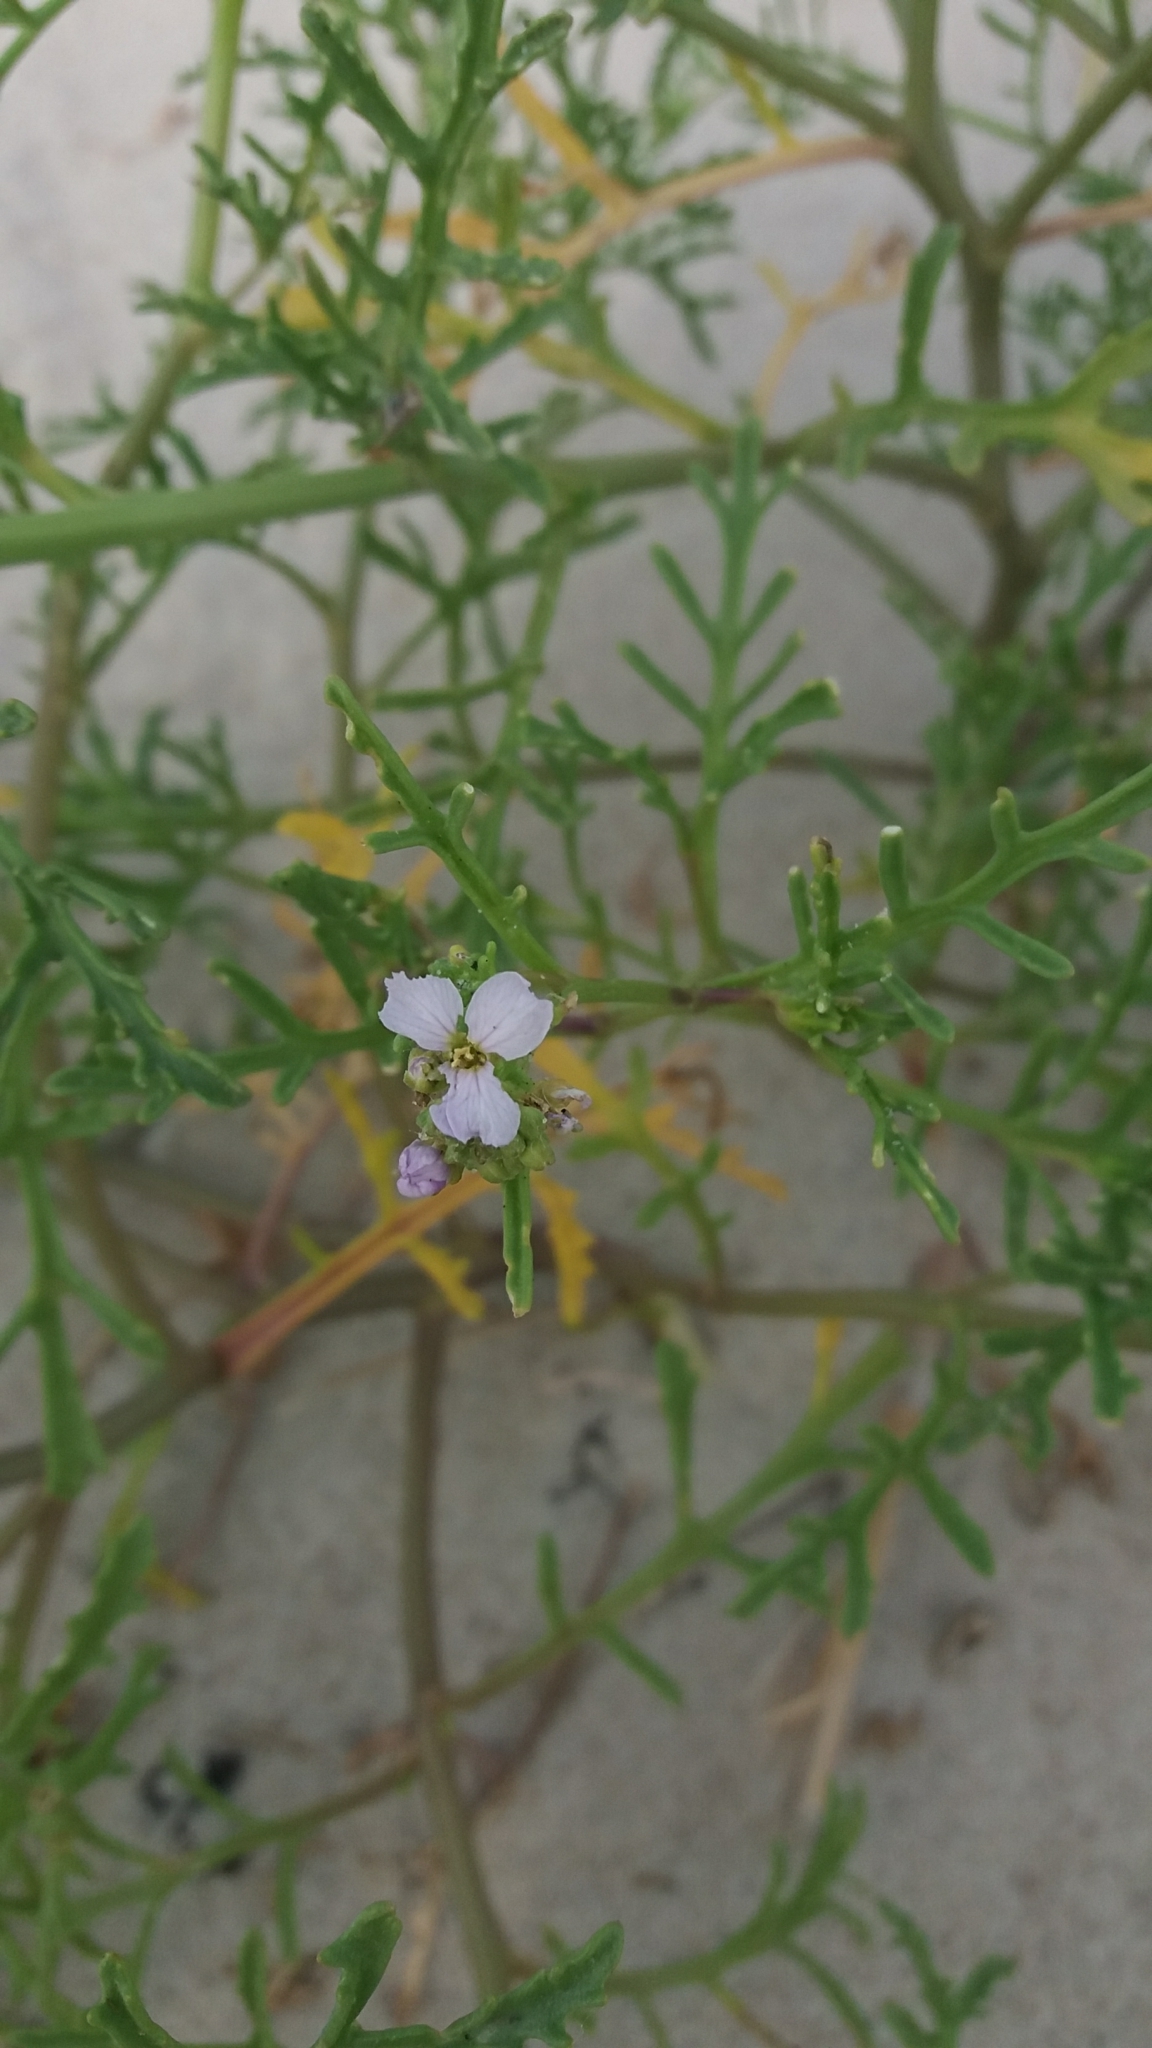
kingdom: Plantae
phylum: Tracheophyta
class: Magnoliopsida
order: Brassicales
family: Brassicaceae
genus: Cakile
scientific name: Cakile maritima
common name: Sea rocket
